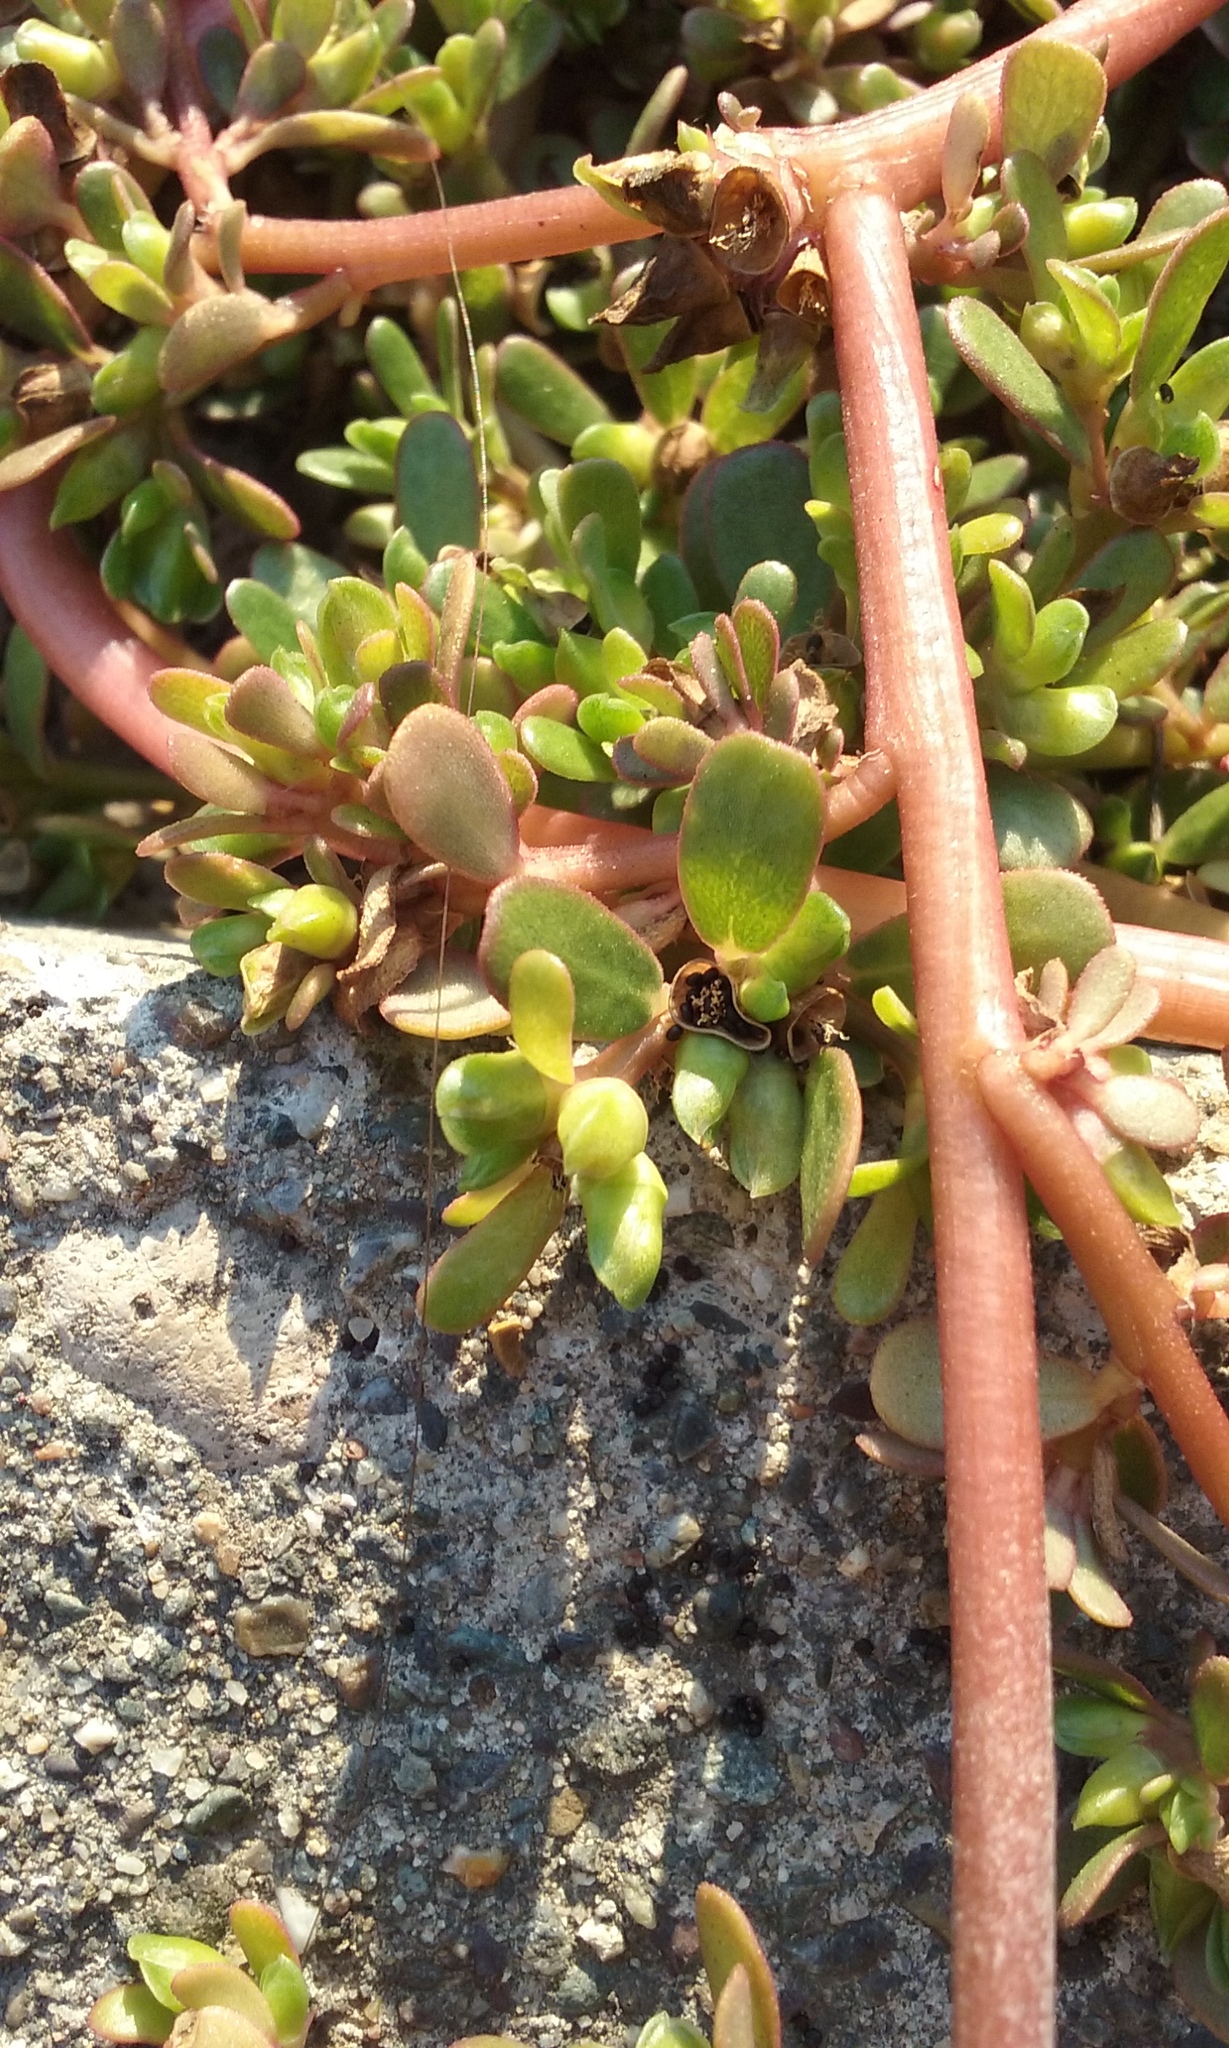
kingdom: Plantae
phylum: Tracheophyta
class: Magnoliopsida
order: Caryophyllales
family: Portulacaceae
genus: Portulaca
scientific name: Portulaca oleracea
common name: Common purslane
